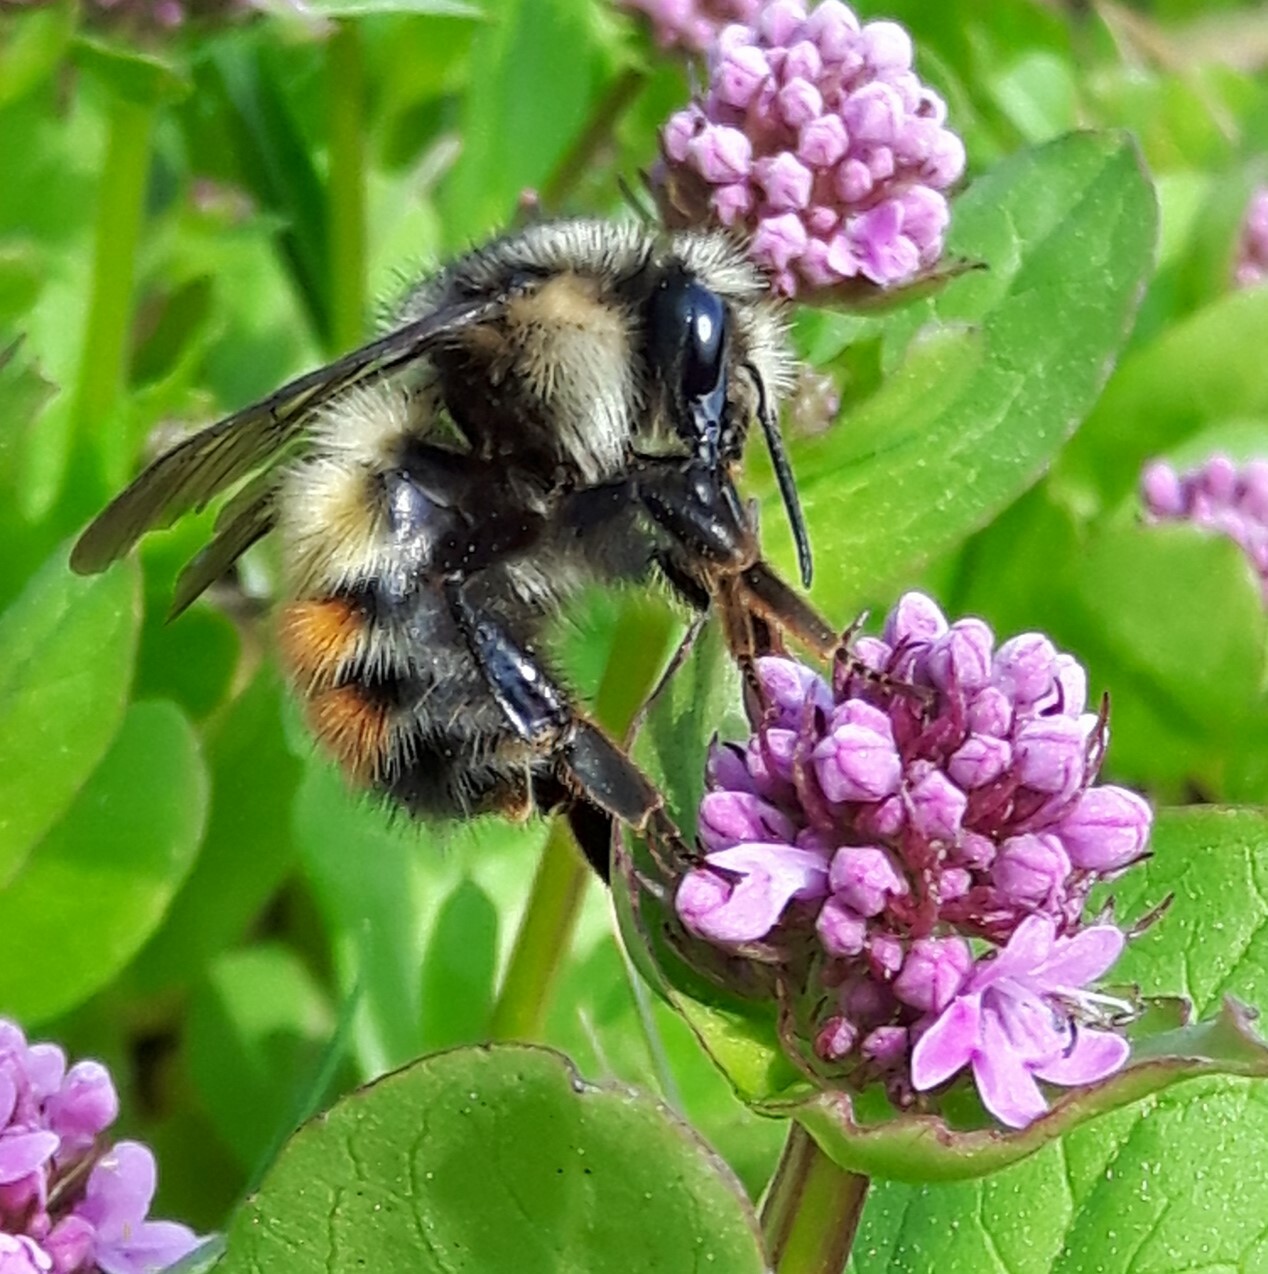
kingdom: Animalia
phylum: Arthropoda
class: Insecta
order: Hymenoptera
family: Apidae
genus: Bombus
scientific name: Bombus flavifrons
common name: Yellow head bumble bee
